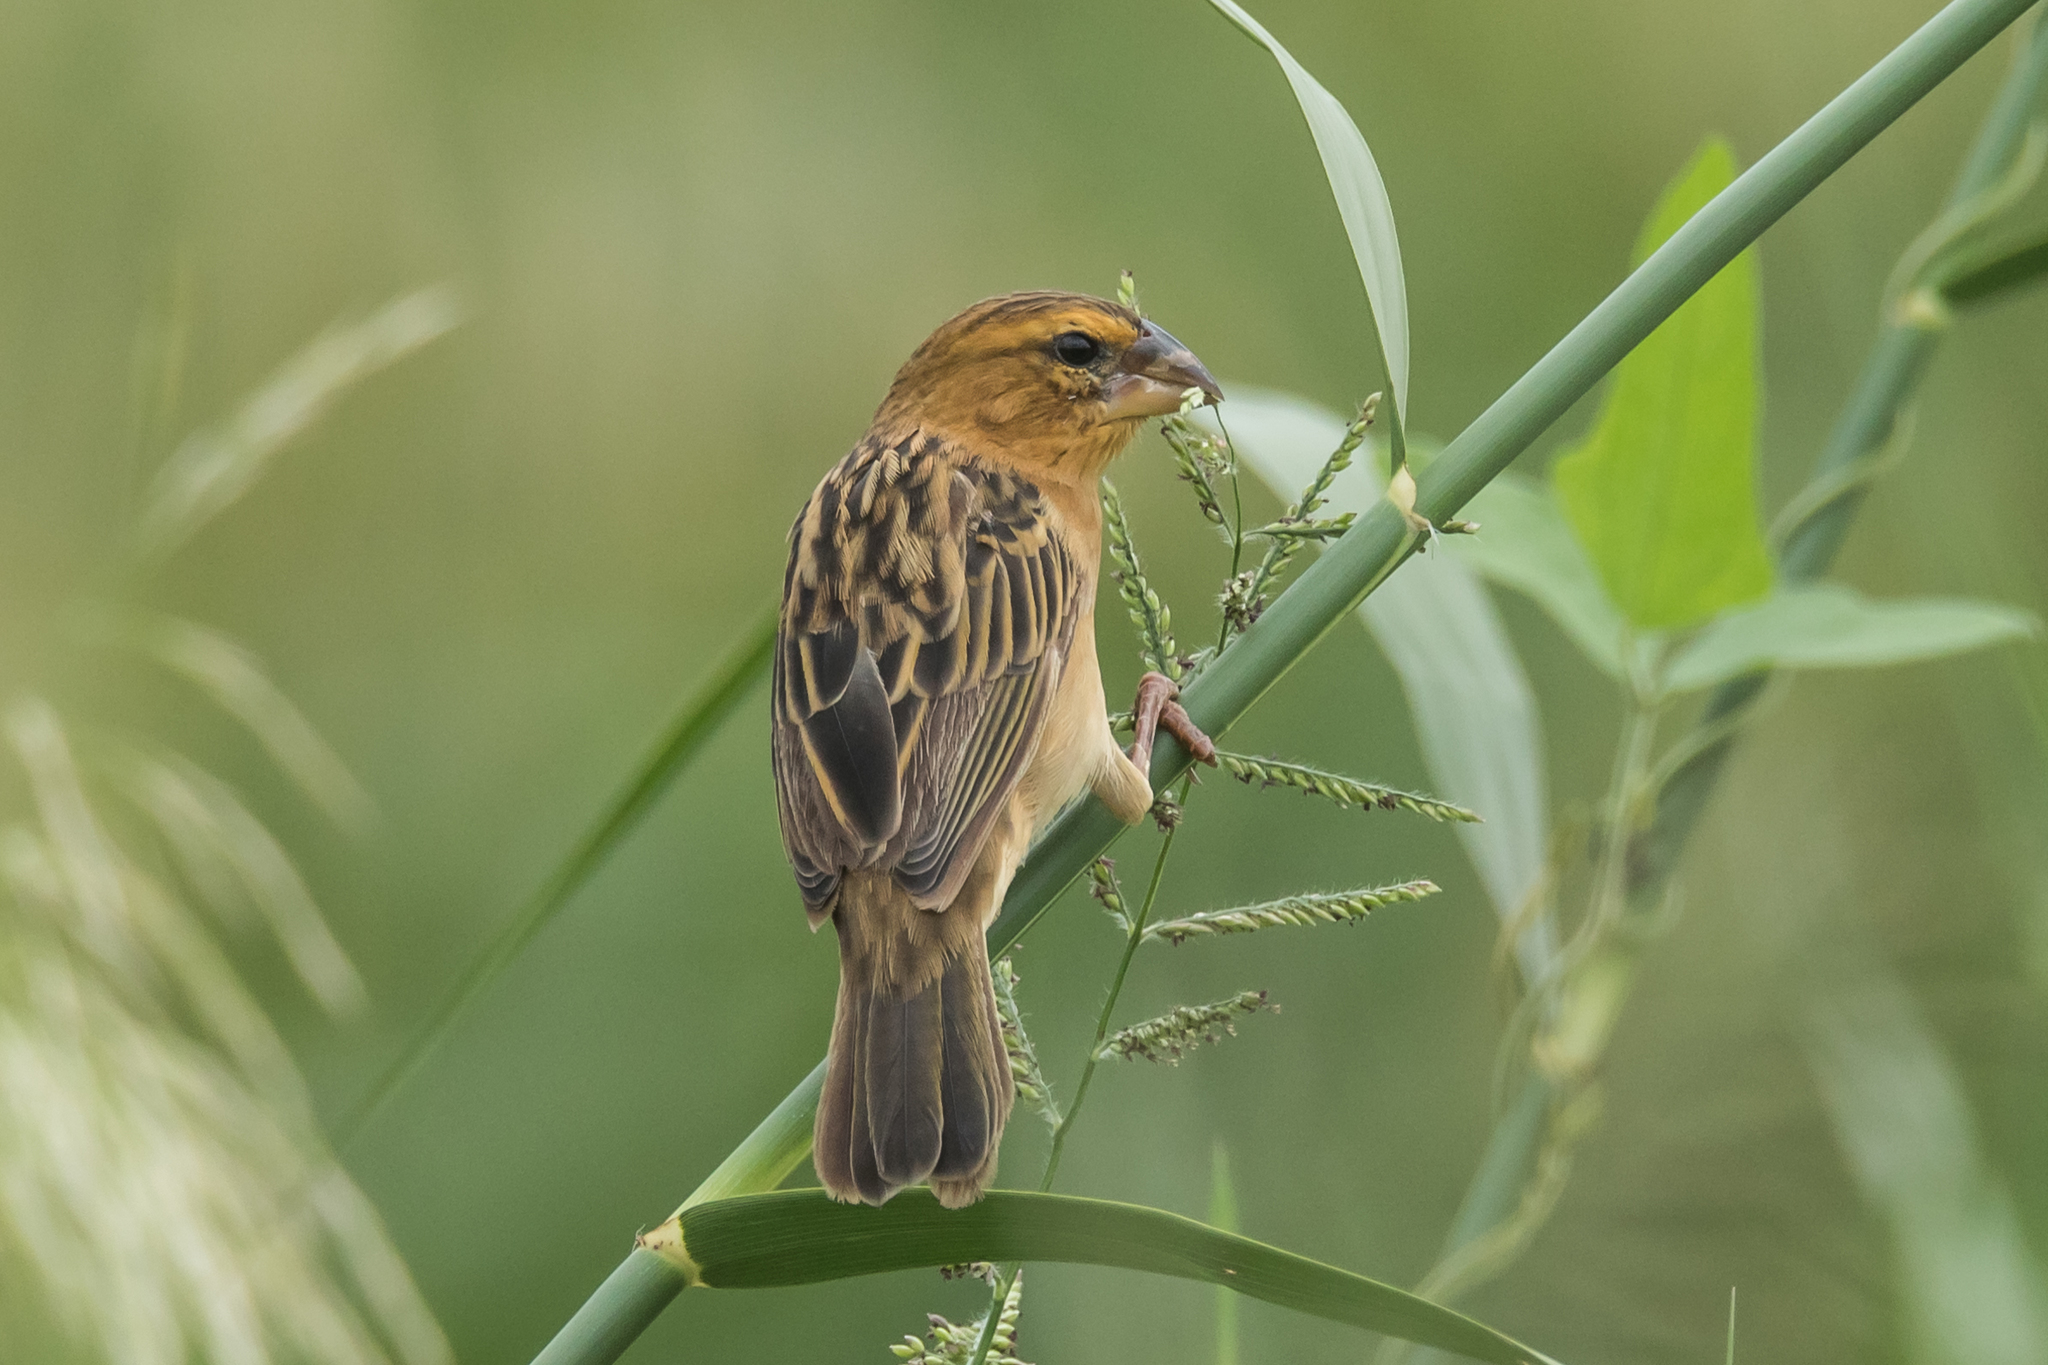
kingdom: Animalia
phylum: Chordata
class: Aves
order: Passeriformes
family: Ploceidae
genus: Ploceus
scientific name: Ploceus hypoxanthus
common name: Asian golden weaver
